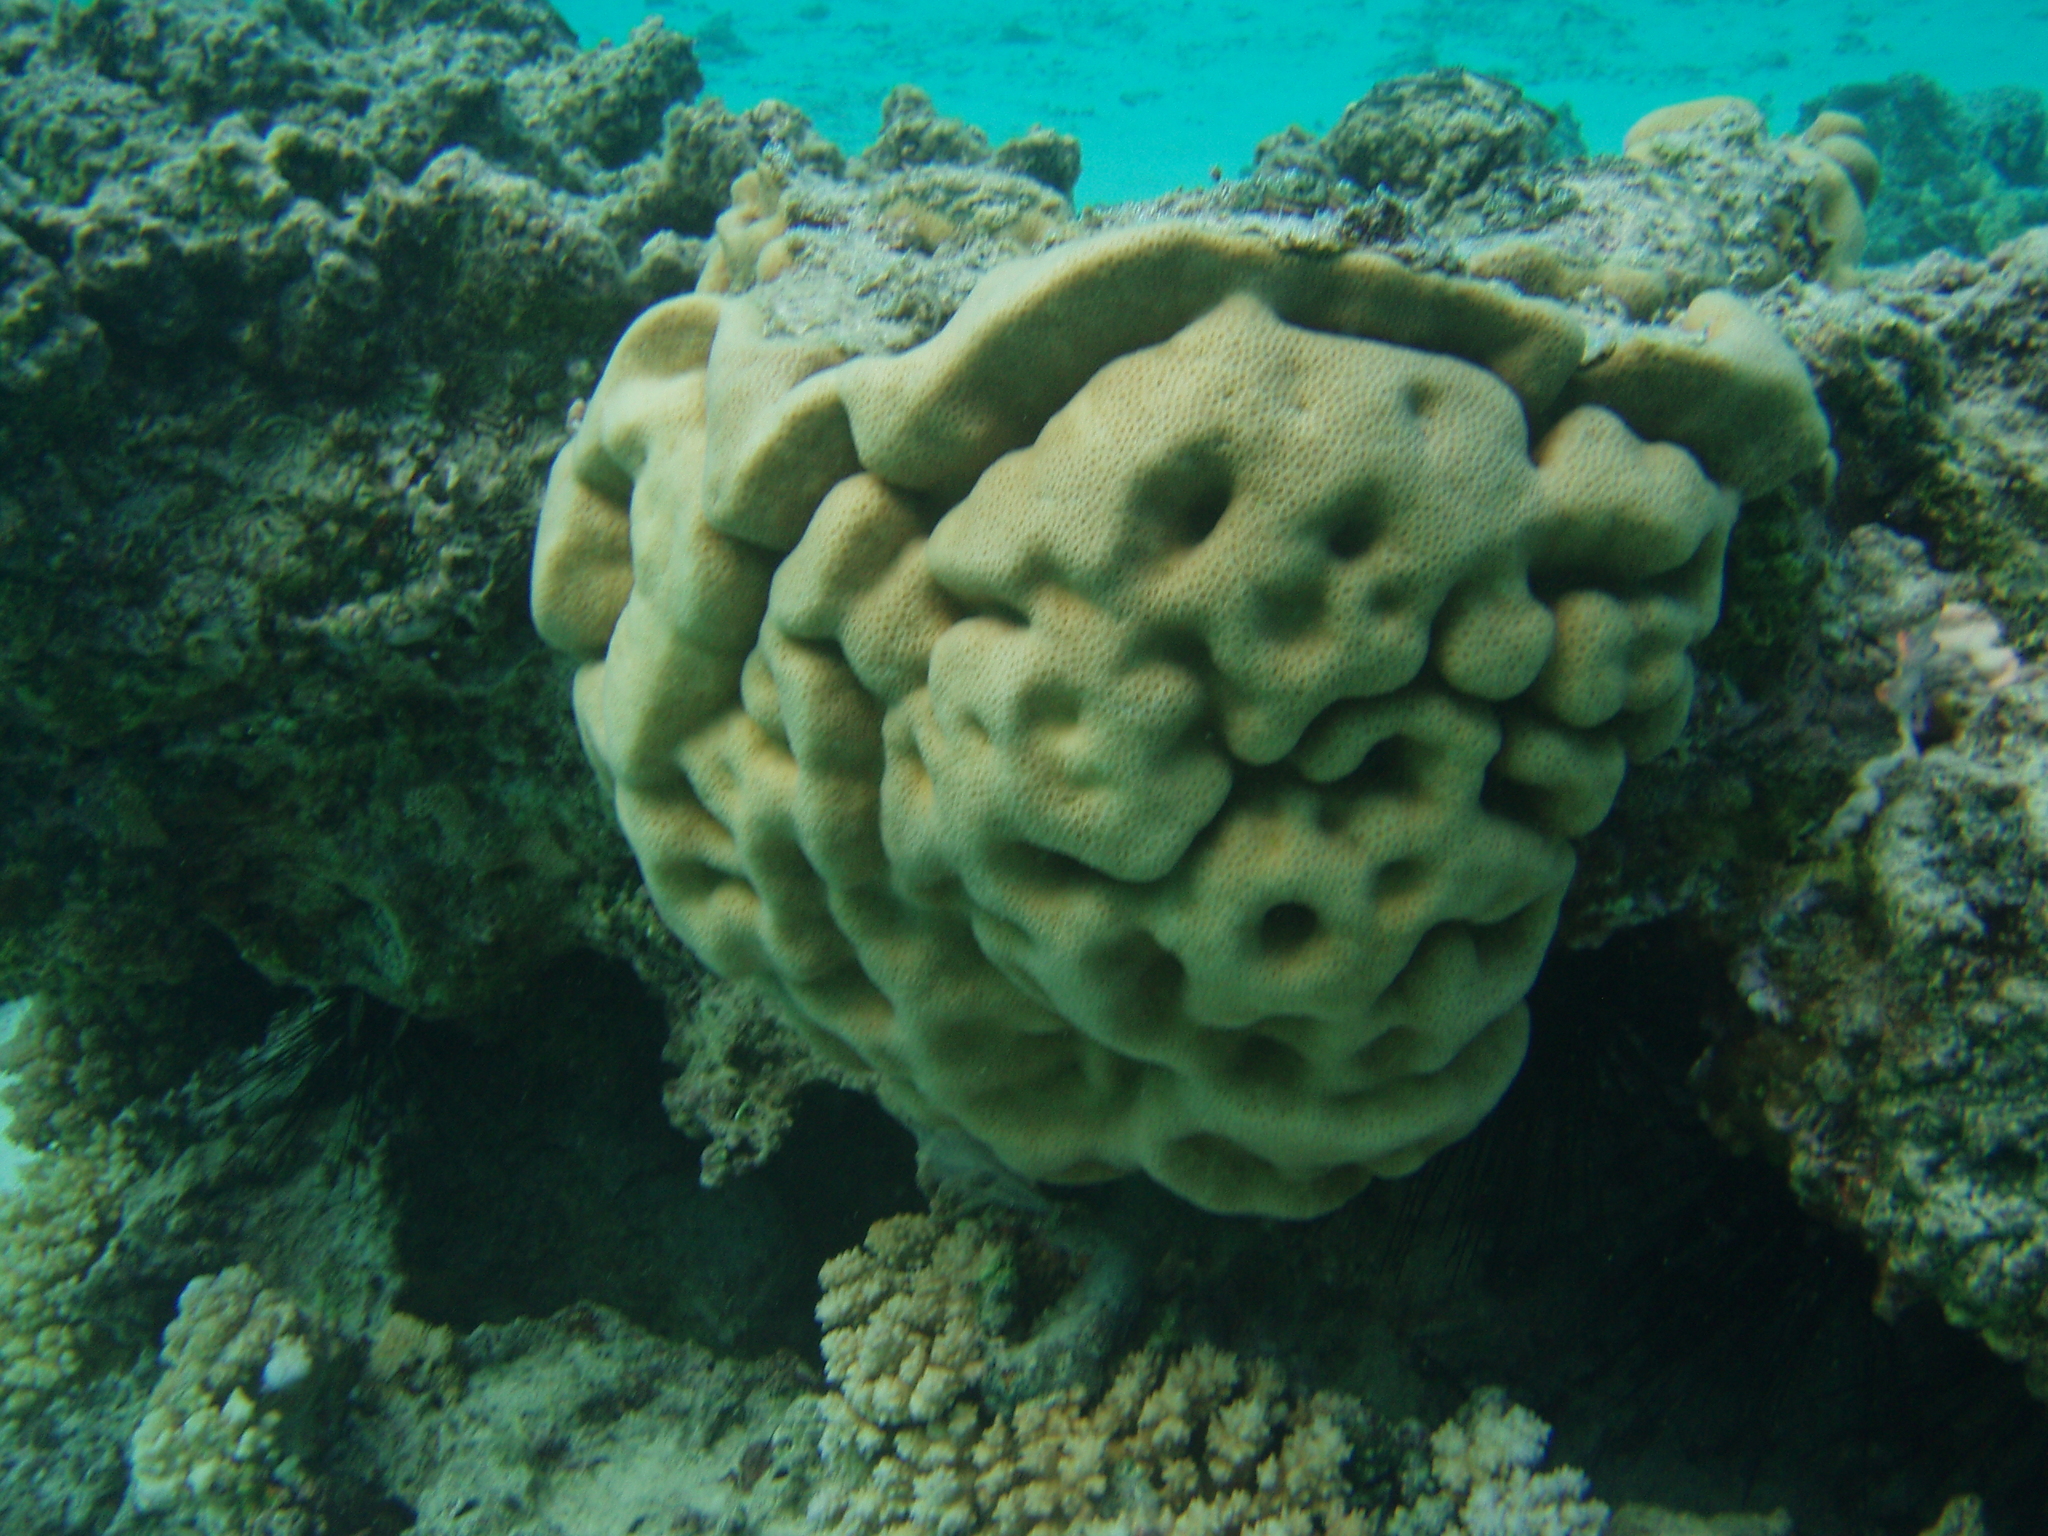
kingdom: Animalia
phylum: Cnidaria
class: Anthozoa
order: Scleractinia
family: Agariciidae
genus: Pavona
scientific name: Pavona duerdeni
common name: Leaf coral
